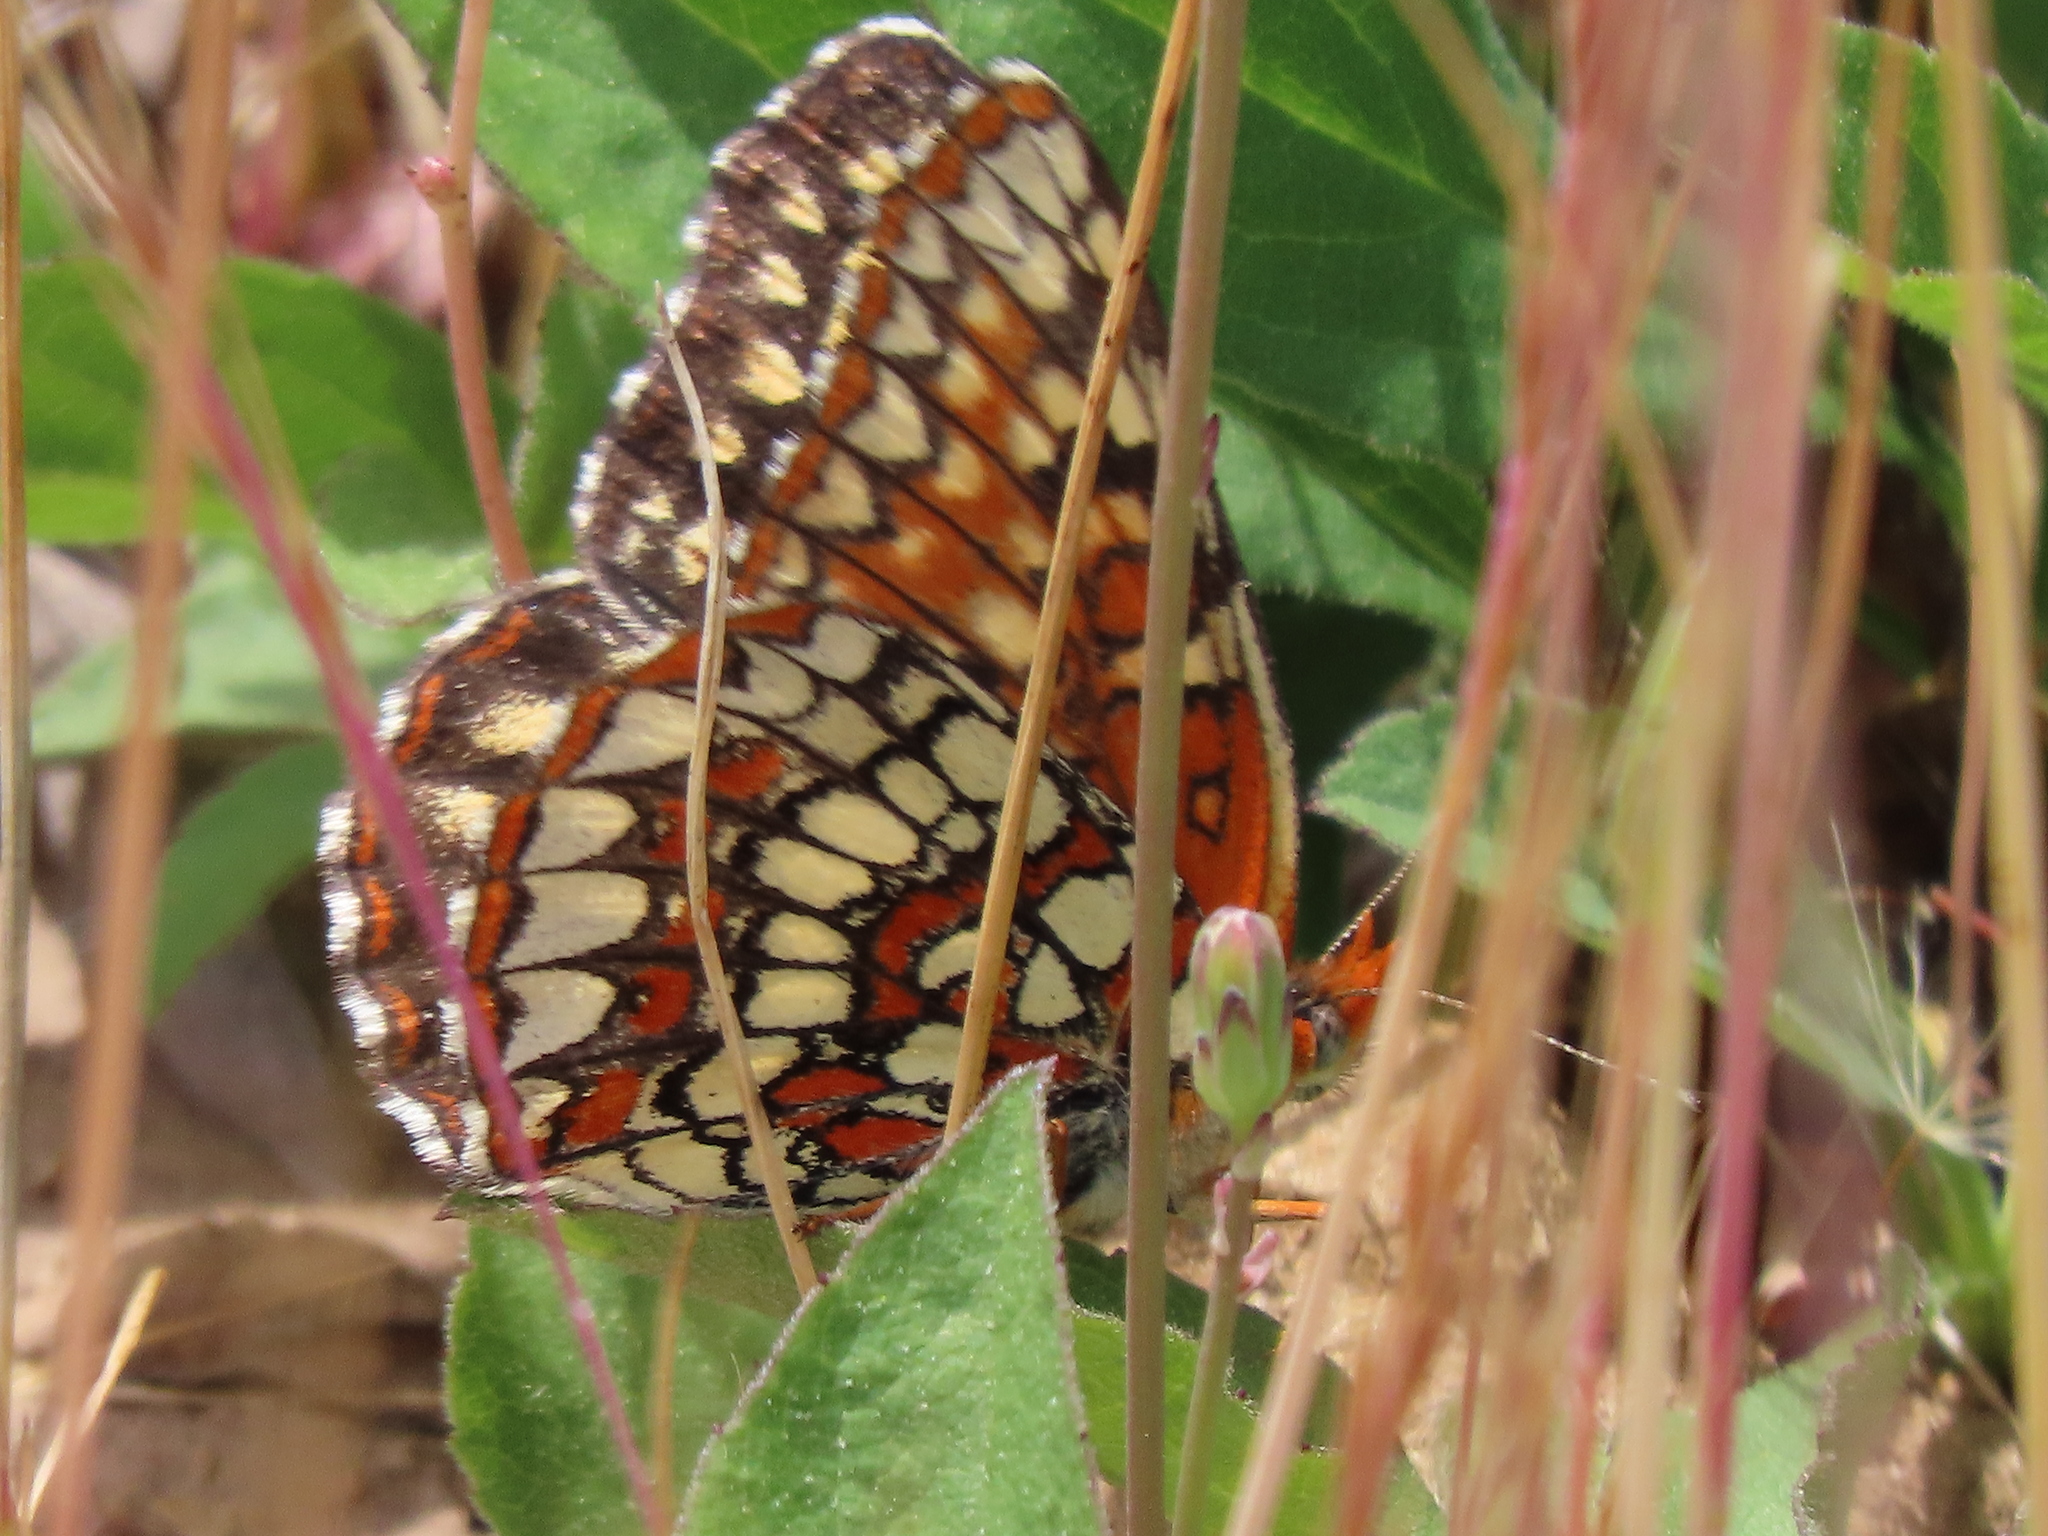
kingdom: Animalia
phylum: Arthropoda
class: Insecta
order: Lepidoptera
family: Nymphalidae
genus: Chlosyne
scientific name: Chlosyne palla
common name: Northern checkerspot
